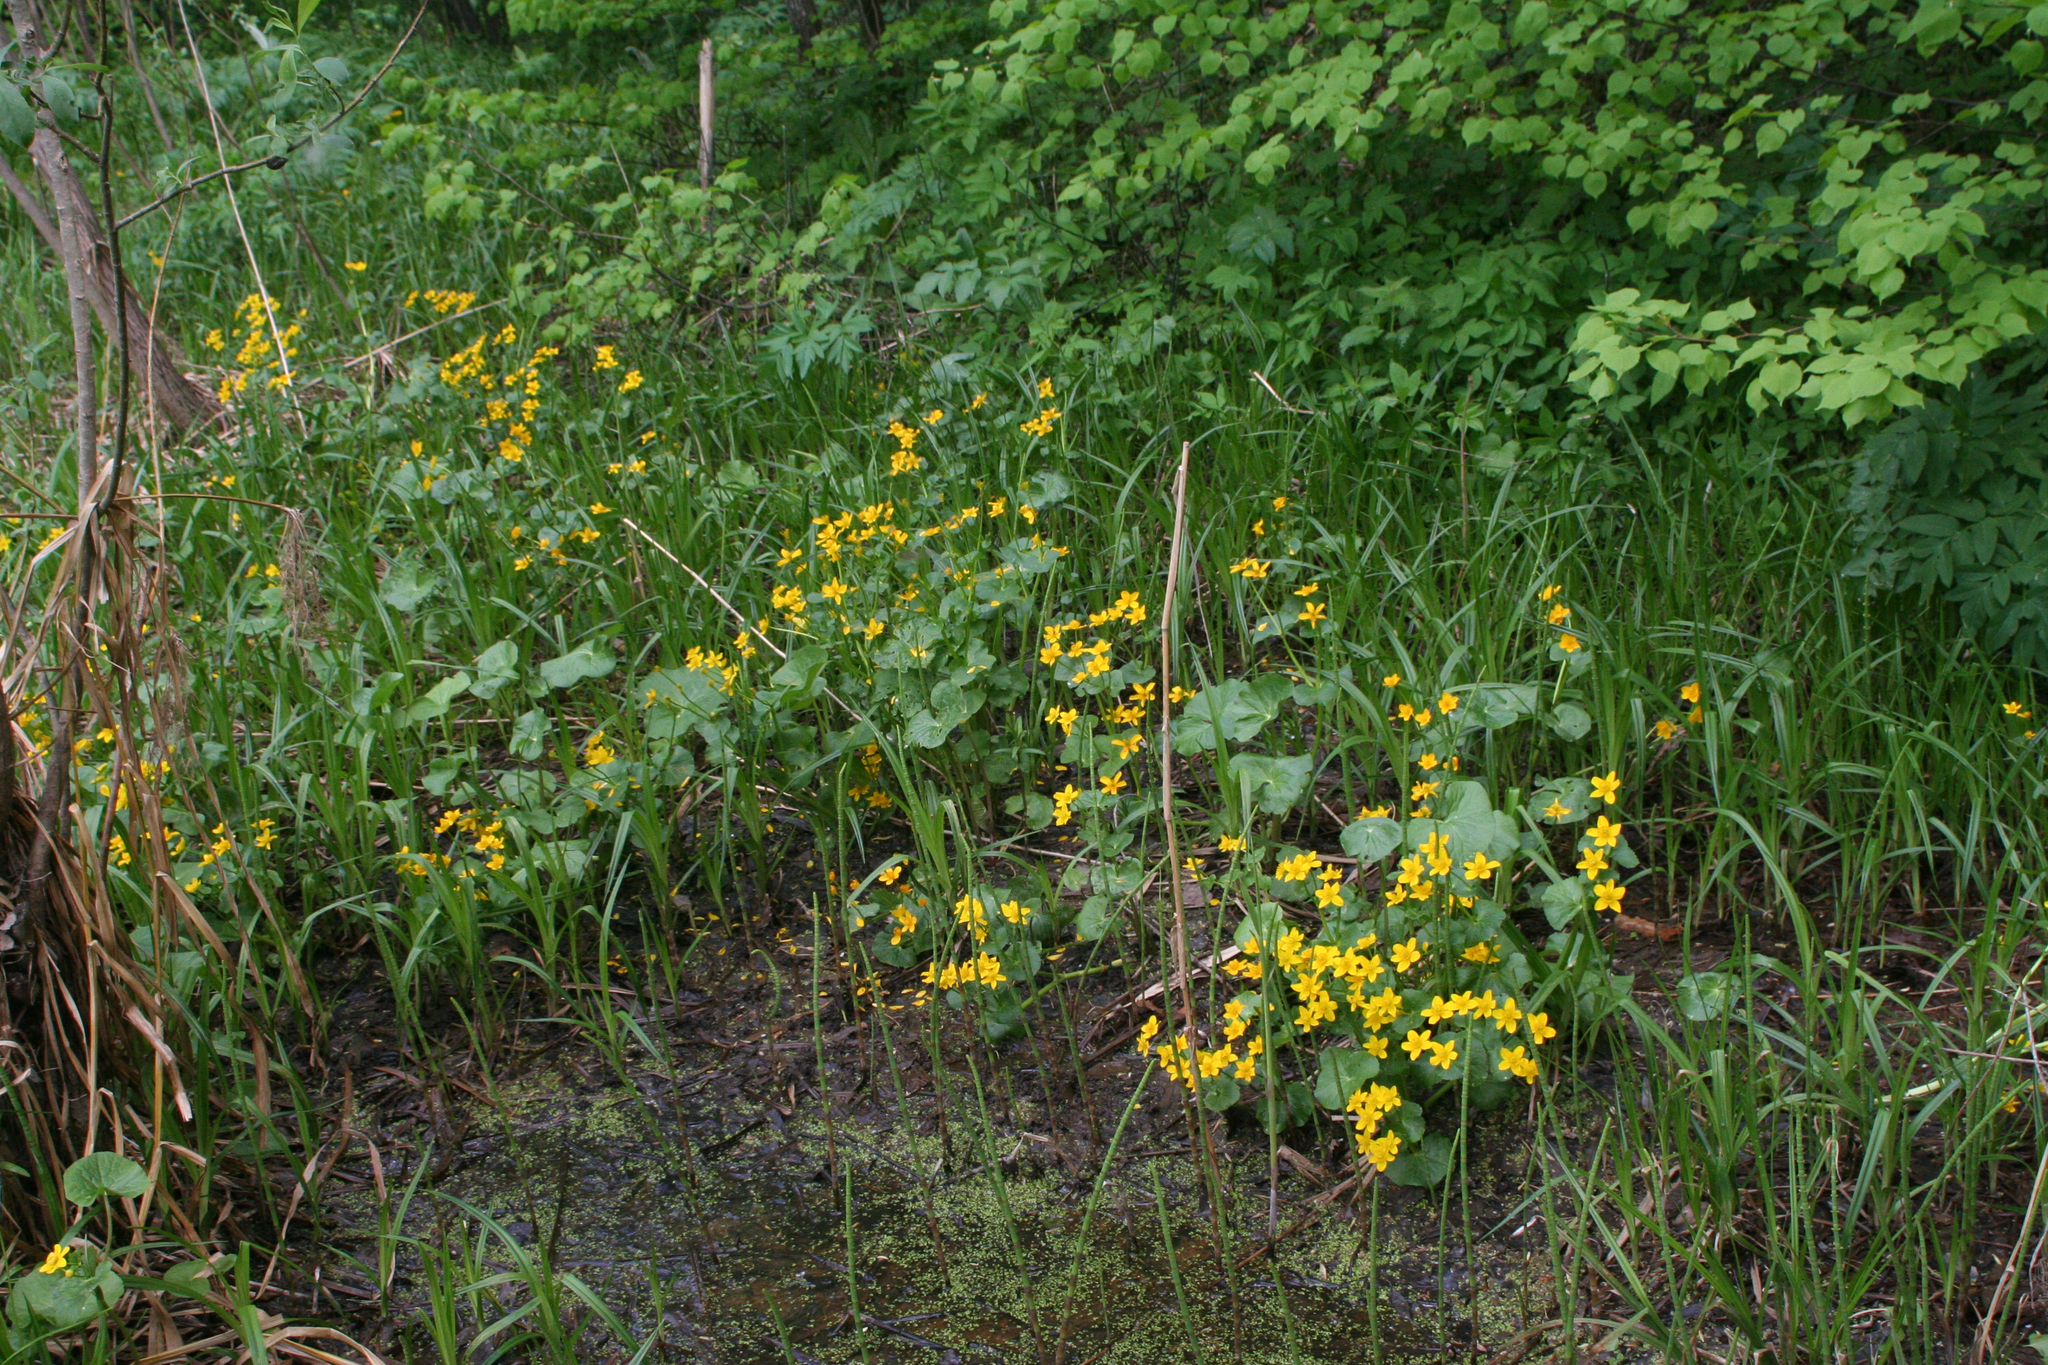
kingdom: Plantae
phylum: Tracheophyta
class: Magnoliopsida
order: Ranunculales
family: Ranunculaceae
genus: Caltha
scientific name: Caltha palustris
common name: Marsh marigold
